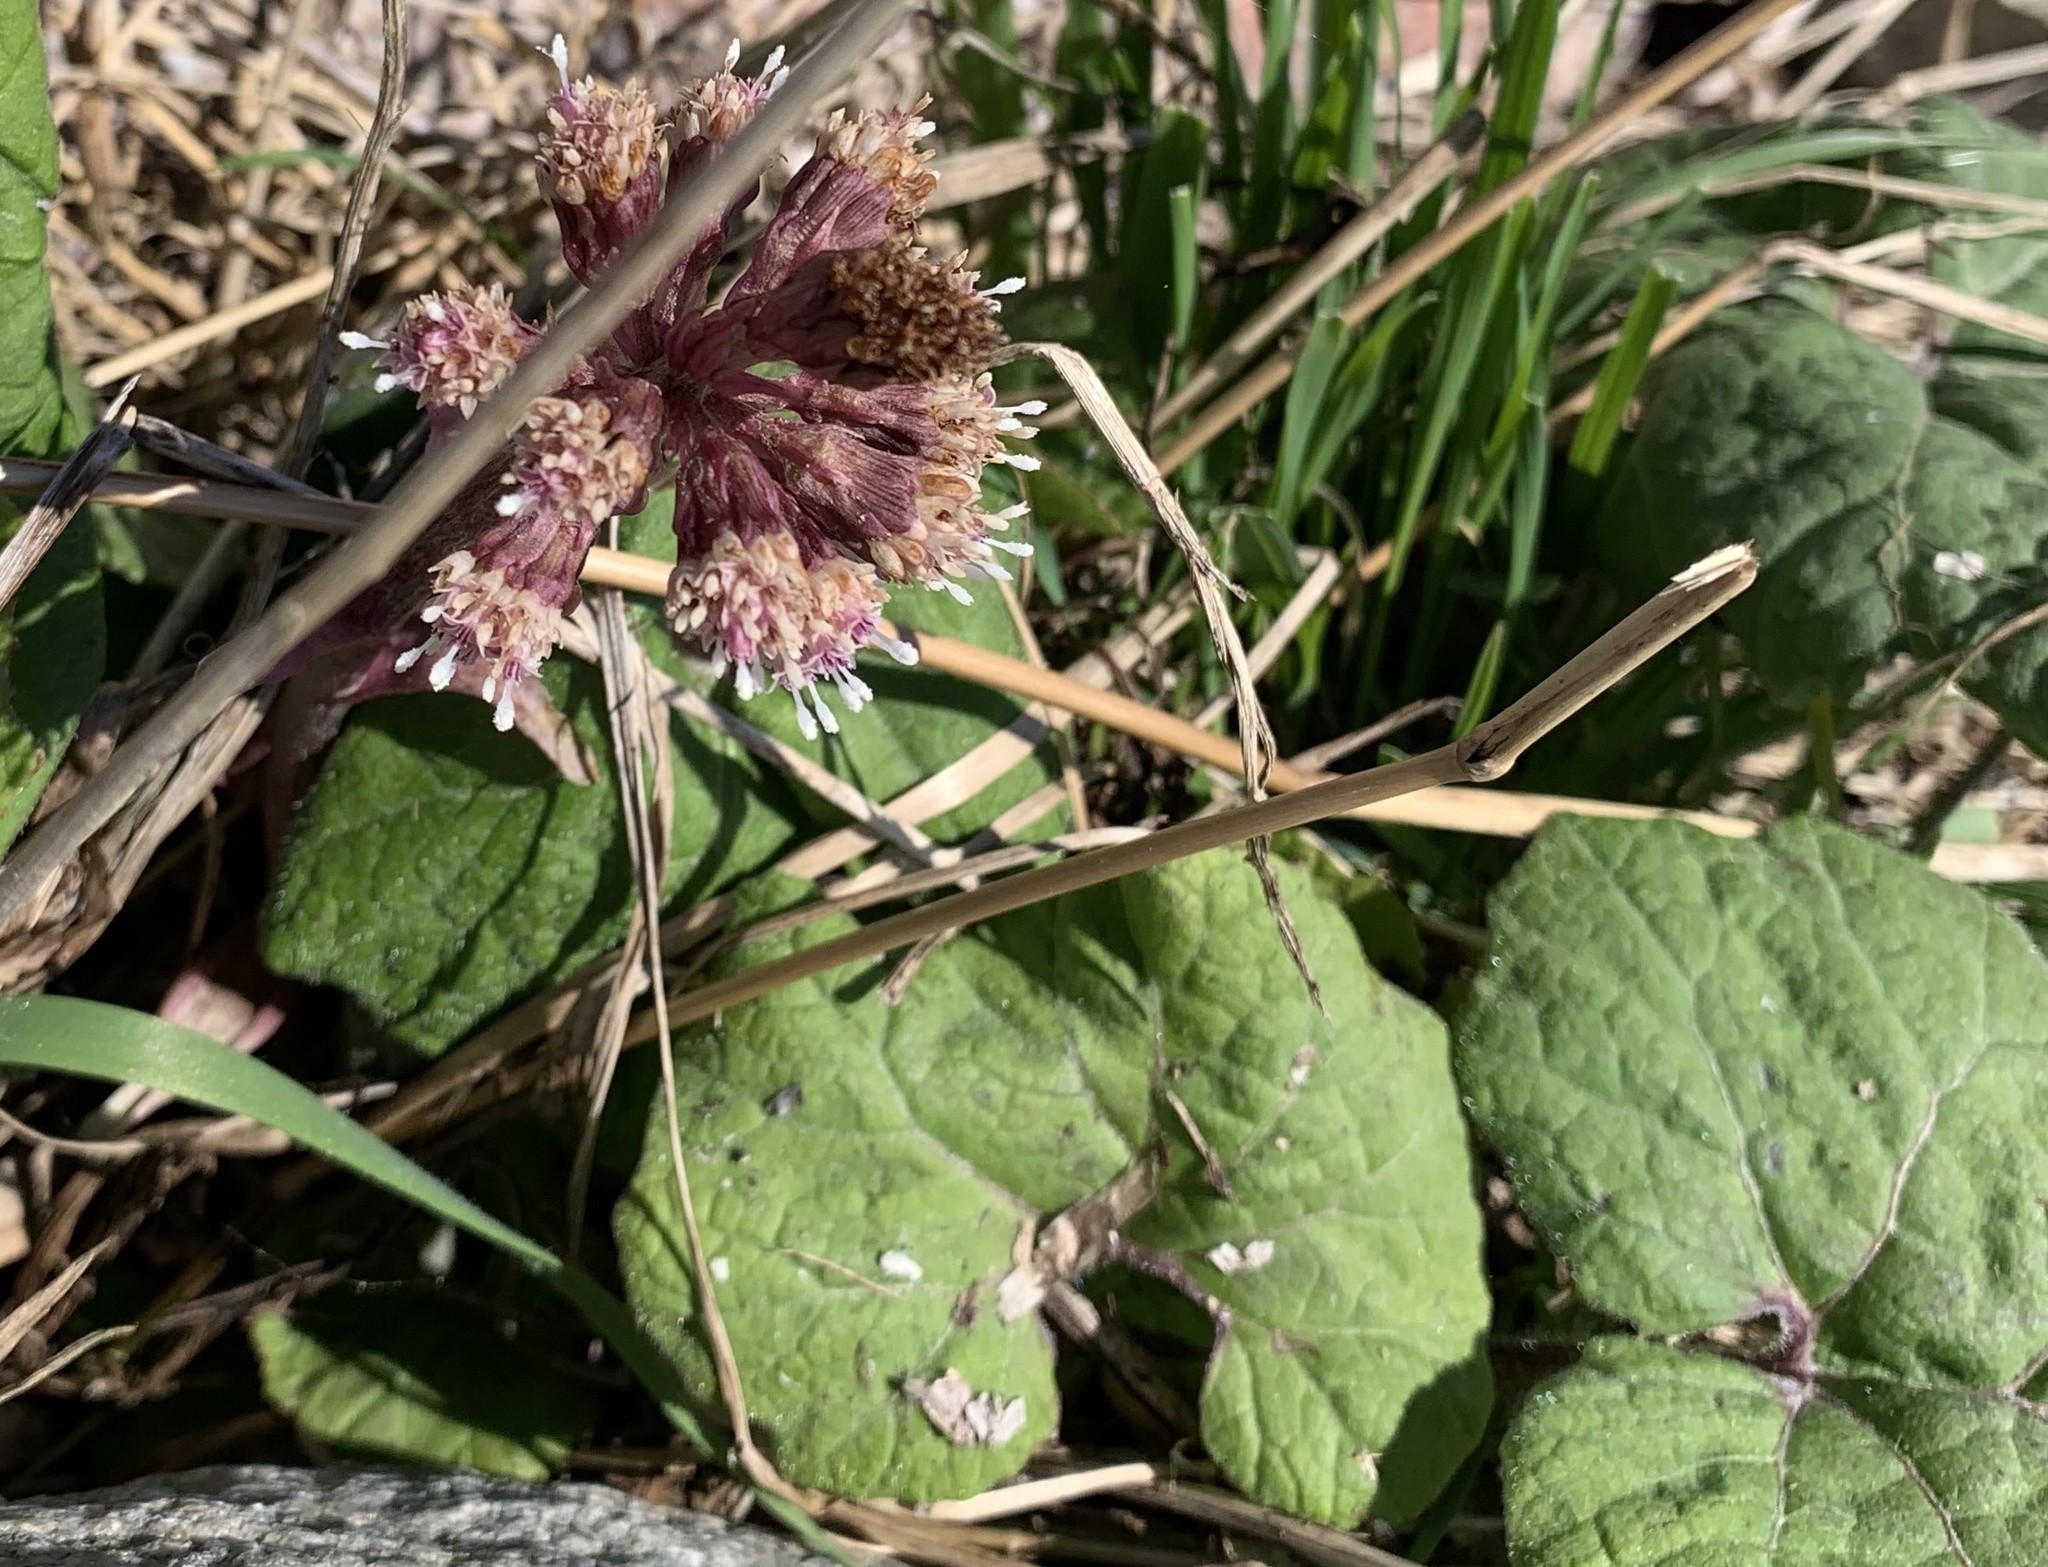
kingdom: Plantae
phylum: Tracheophyta
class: Magnoliopsida
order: Asterales
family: Asteraceae
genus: Petasites
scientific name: Petasites hybridus
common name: Butterbur
